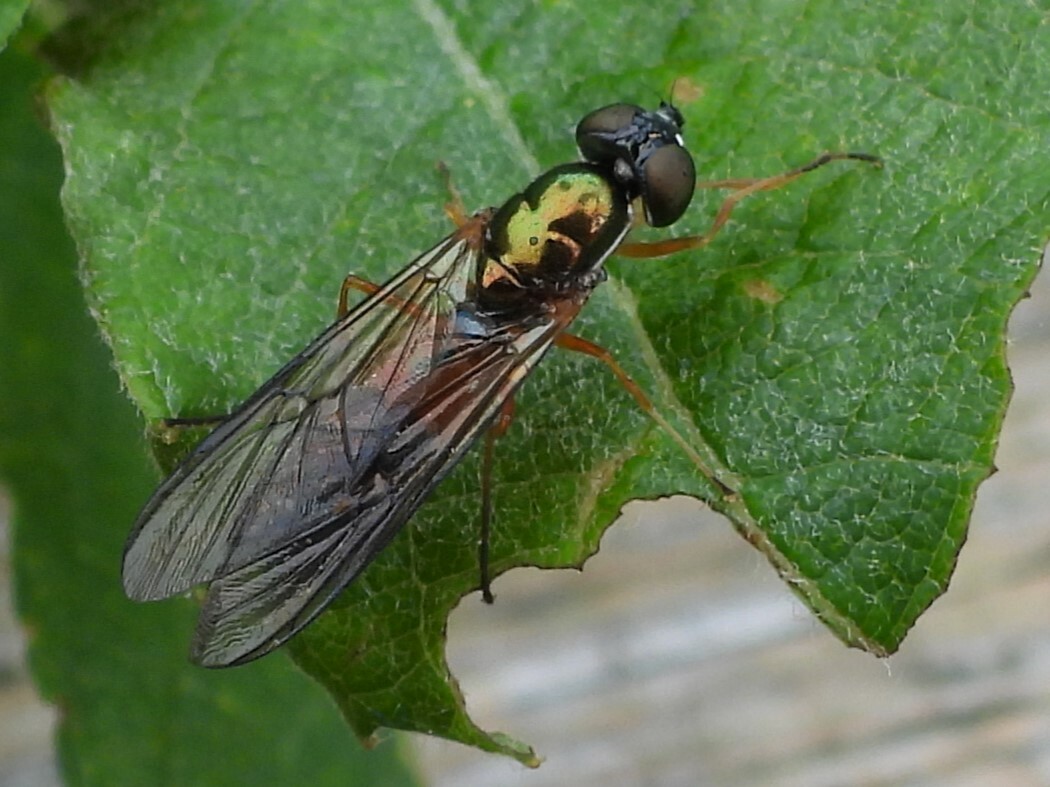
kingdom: Animalia
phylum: Arthropoda
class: Insecta
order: Diptera
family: Stratiomyidae
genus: Sargus
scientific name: Sargus bipunctatus
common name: Twin-spot centurion
